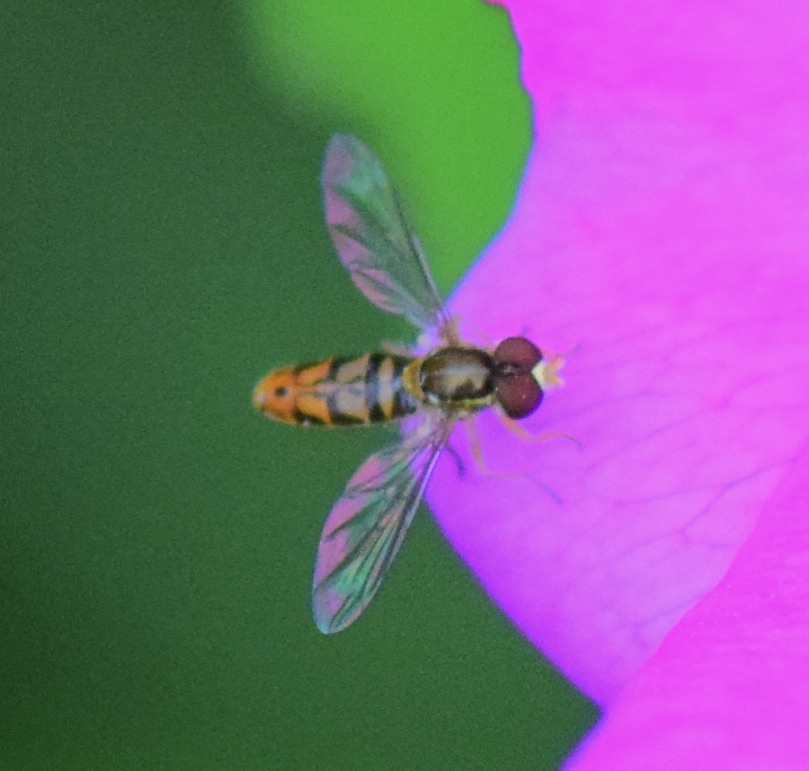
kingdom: Animalia
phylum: Arthropoda
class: Insecta
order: Diptera
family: Syrphidae
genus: Toxomerus
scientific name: Toxomerus marginatus
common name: Syrphid fly
